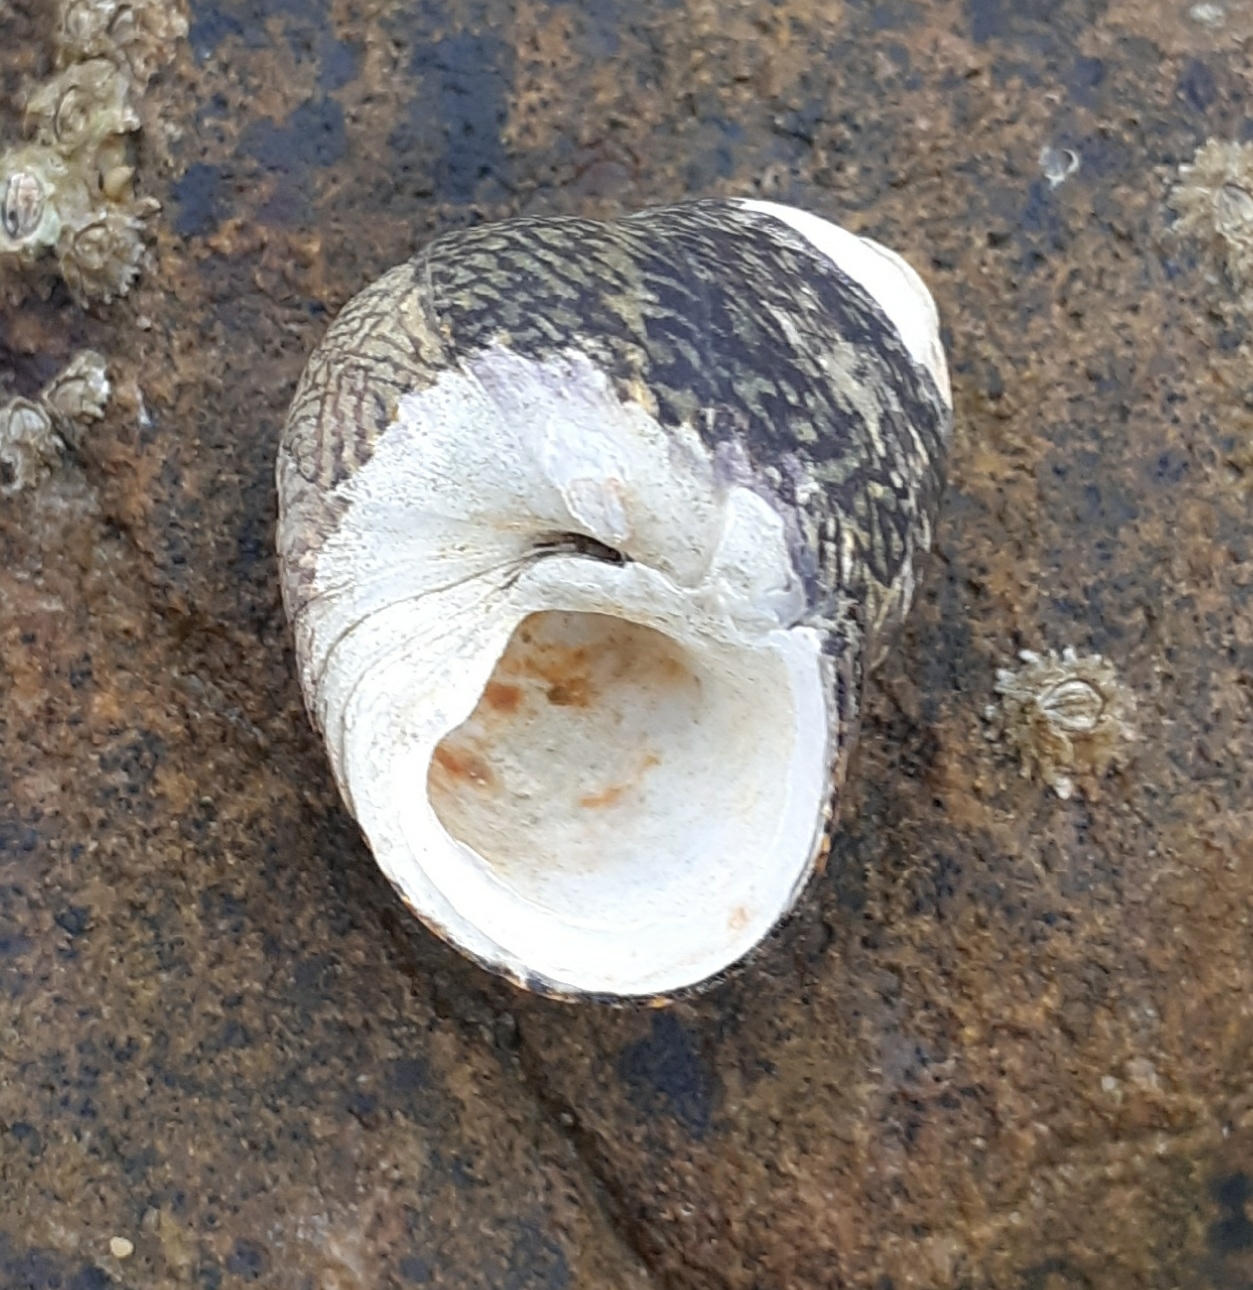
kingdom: Animalia
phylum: Mollusca
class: Gastropoda
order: Trochida
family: Trochidae
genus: Phorcus
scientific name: Phorcus lineatus
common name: Toothed top shell
